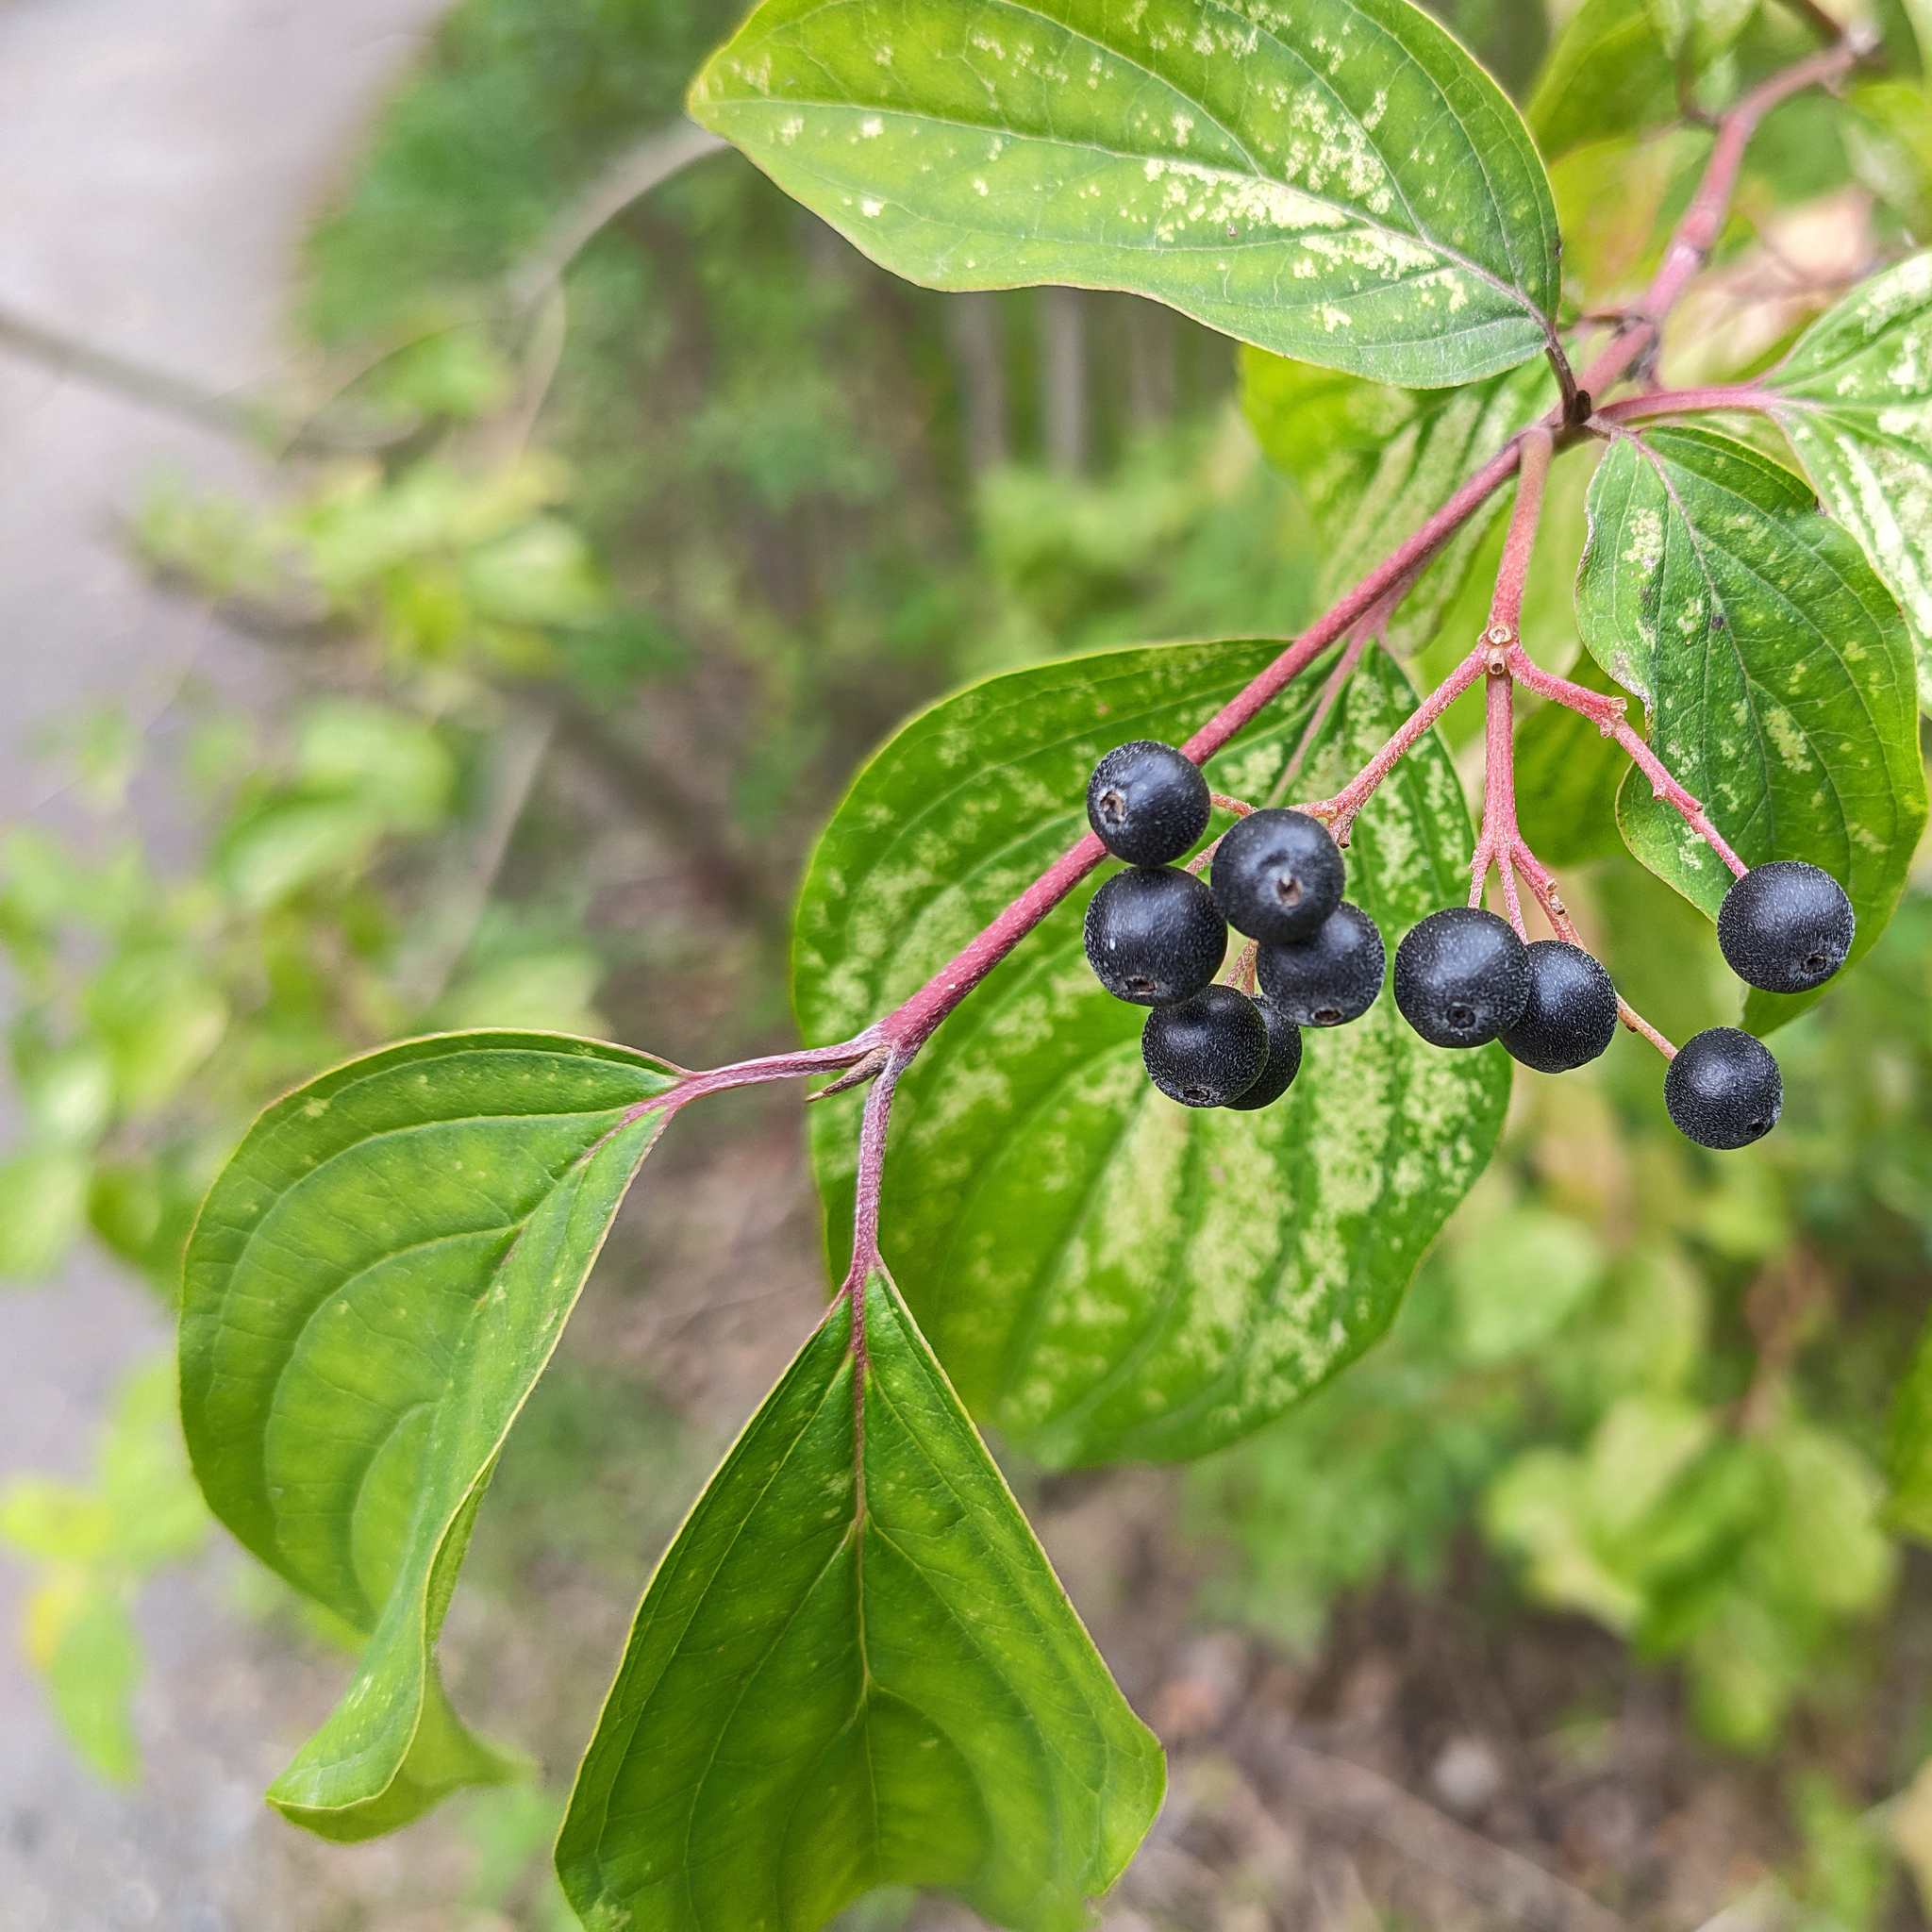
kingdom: Plantae
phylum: Tracheophyta
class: Magnoliopsida
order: Cornales
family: Cornaceae
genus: Cornus
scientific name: Cornus sanguinea
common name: Dogwood
